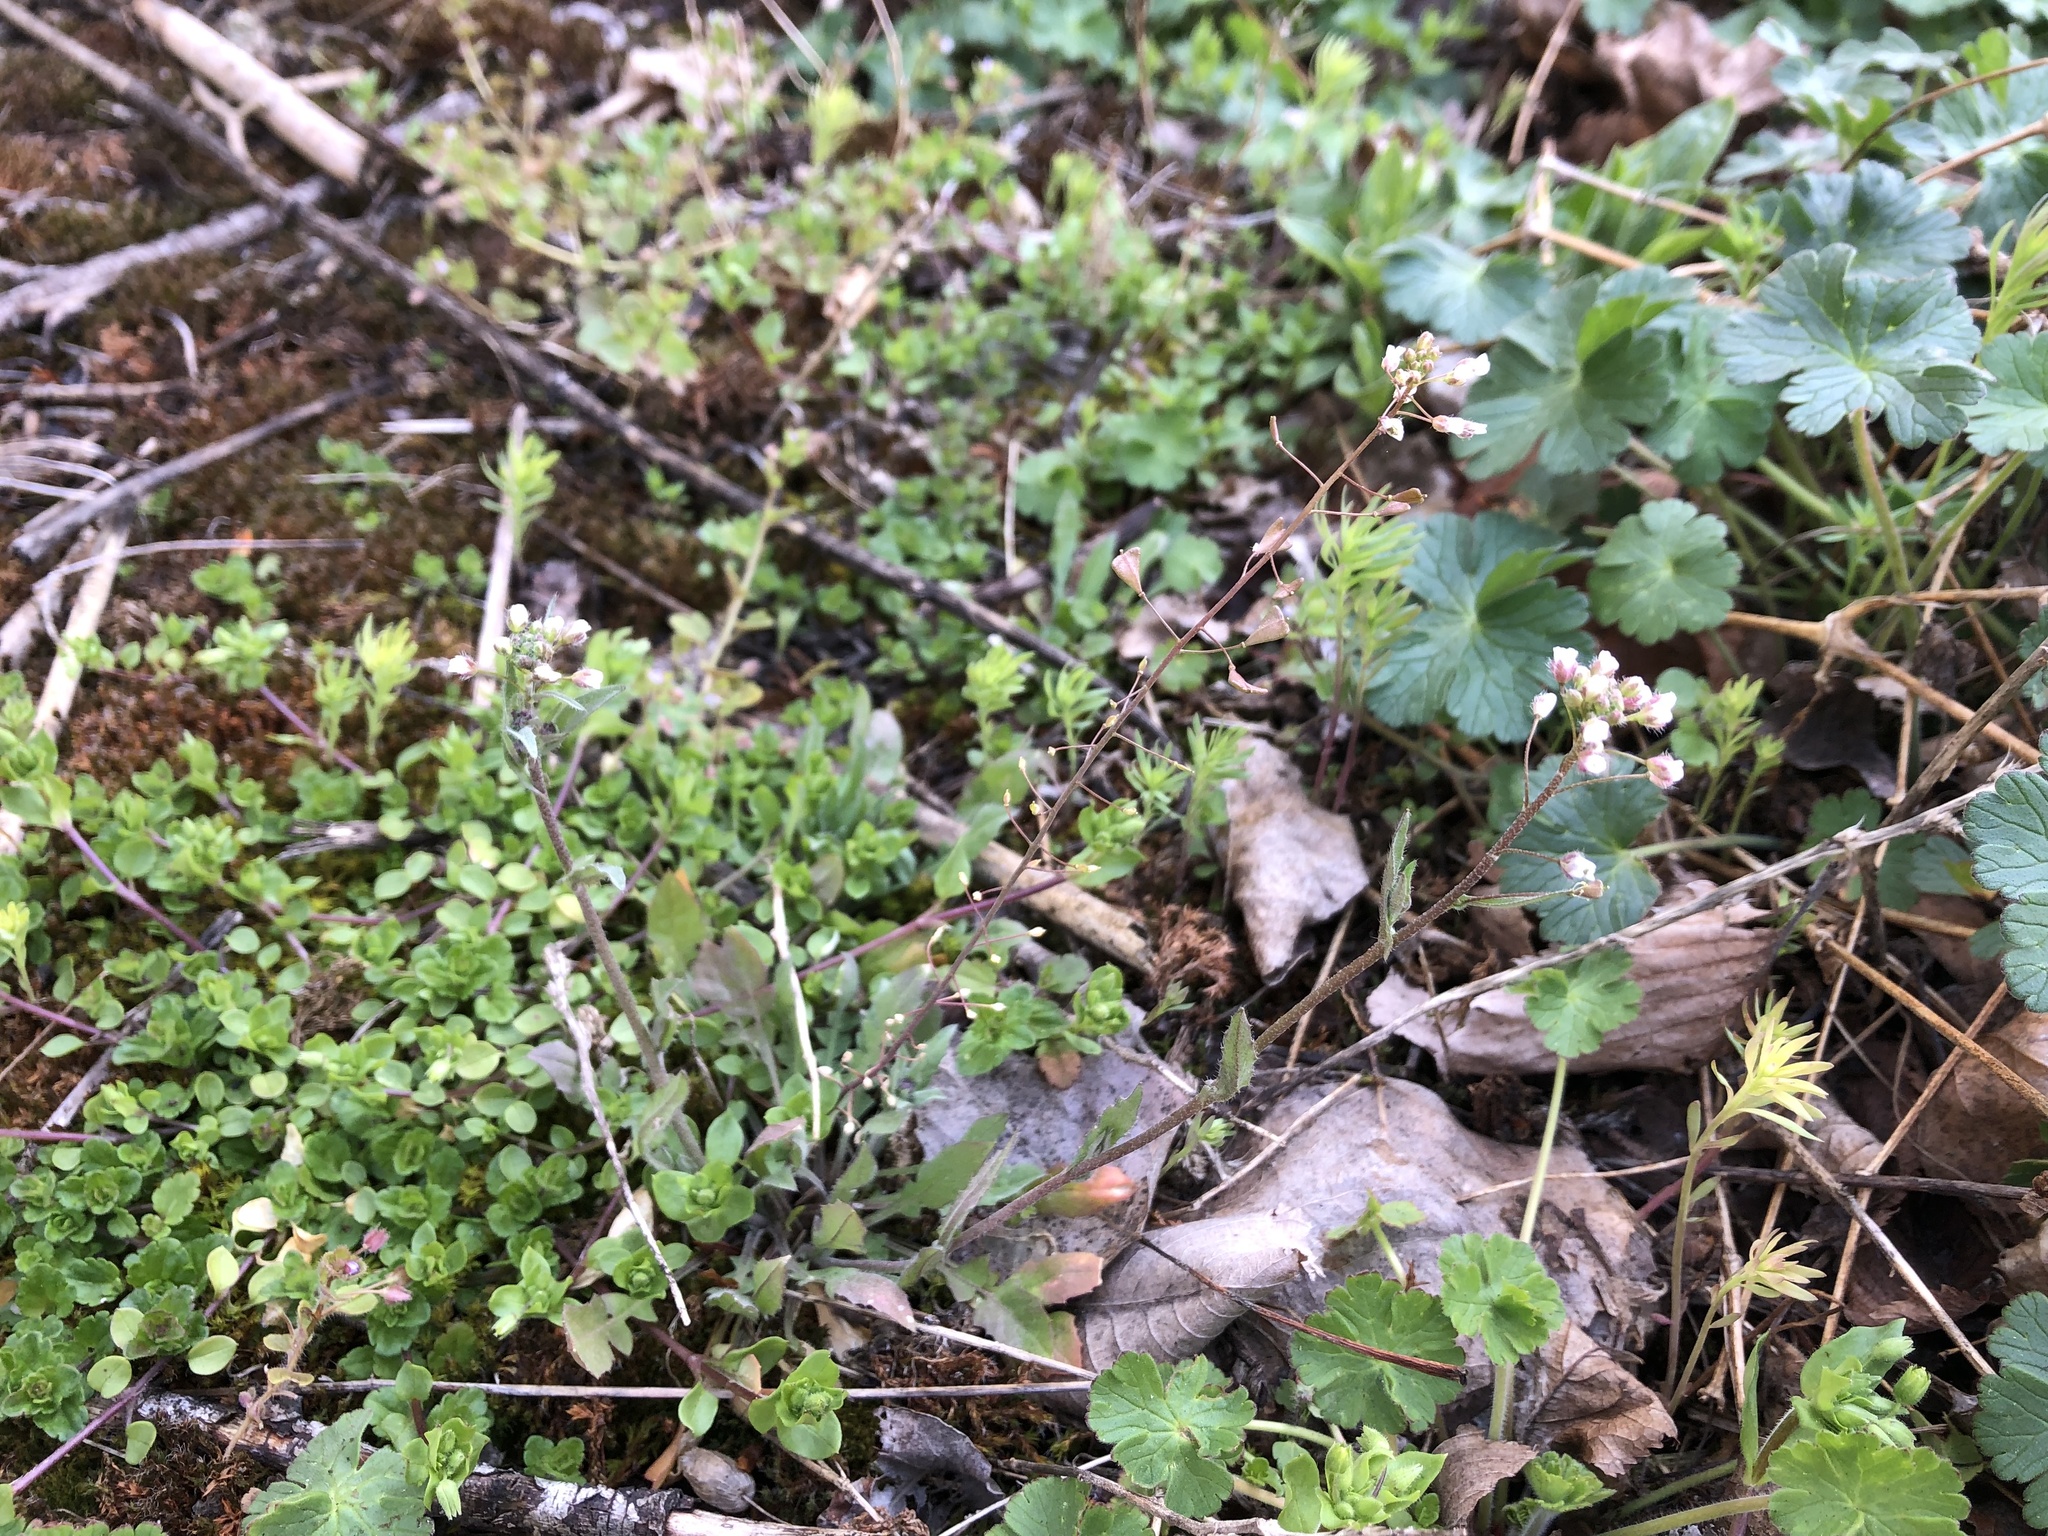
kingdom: Plantae
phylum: Tracheophyta
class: Magnoliopsida
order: Brassicales
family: Brassicaceae
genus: Capsella
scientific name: Capsella bursa-pastoris
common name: Shepherd's purse
